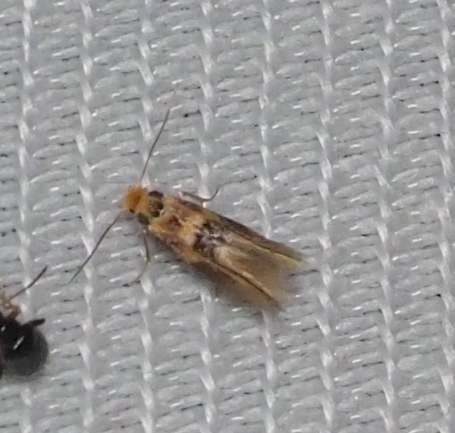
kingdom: Animalia
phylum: Arthropoda
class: Insecta
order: Lepidoptera
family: Bucculatricidae
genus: Bucculatrix
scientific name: Bucculatrix thoracella
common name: Lime bent-wing
